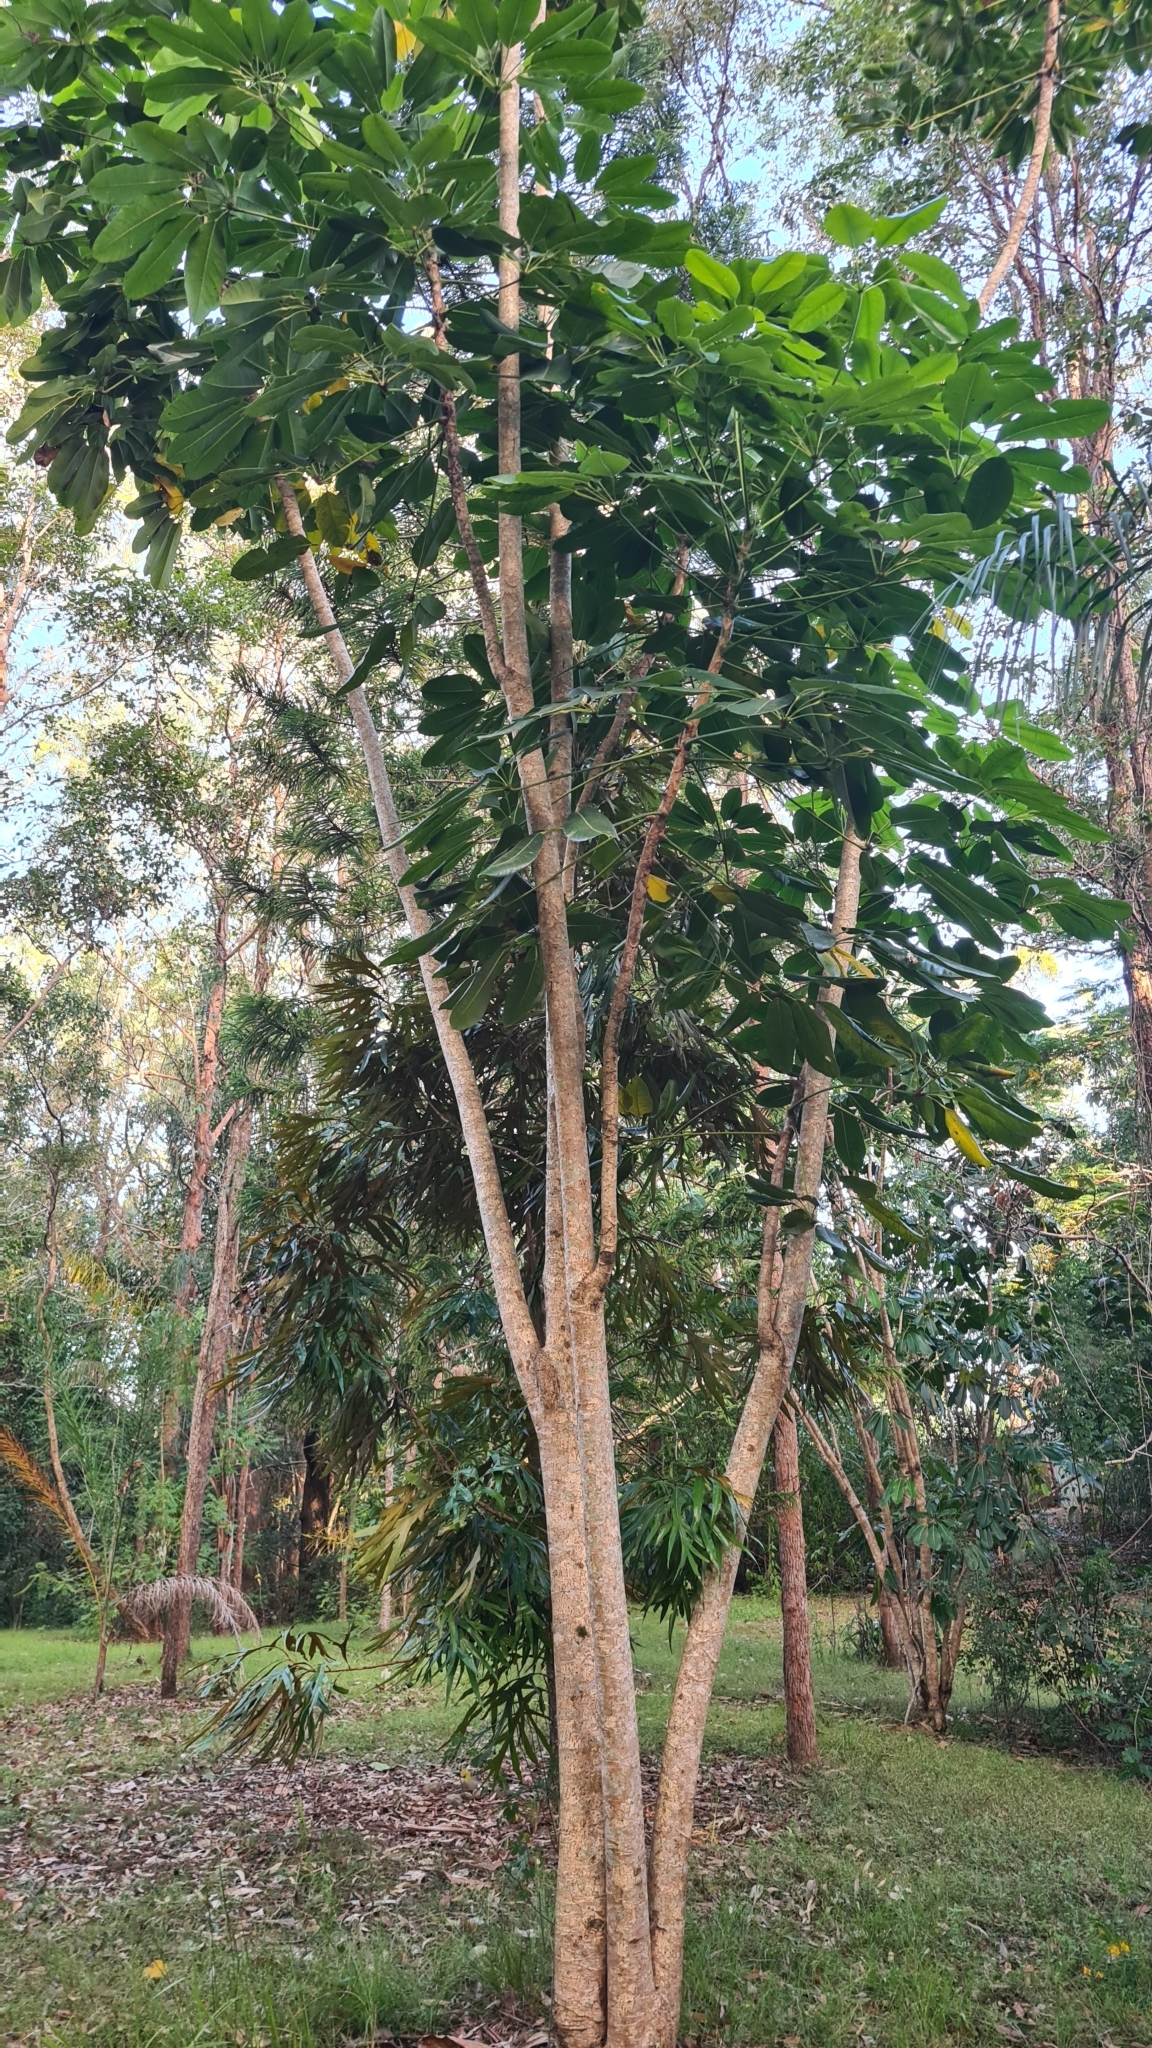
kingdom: Plantae
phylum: Tracheophyta
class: Magnoliopsida
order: Apiales
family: Araliaceae
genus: Heptapleurum
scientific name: Heptapleurum actinophyllum
